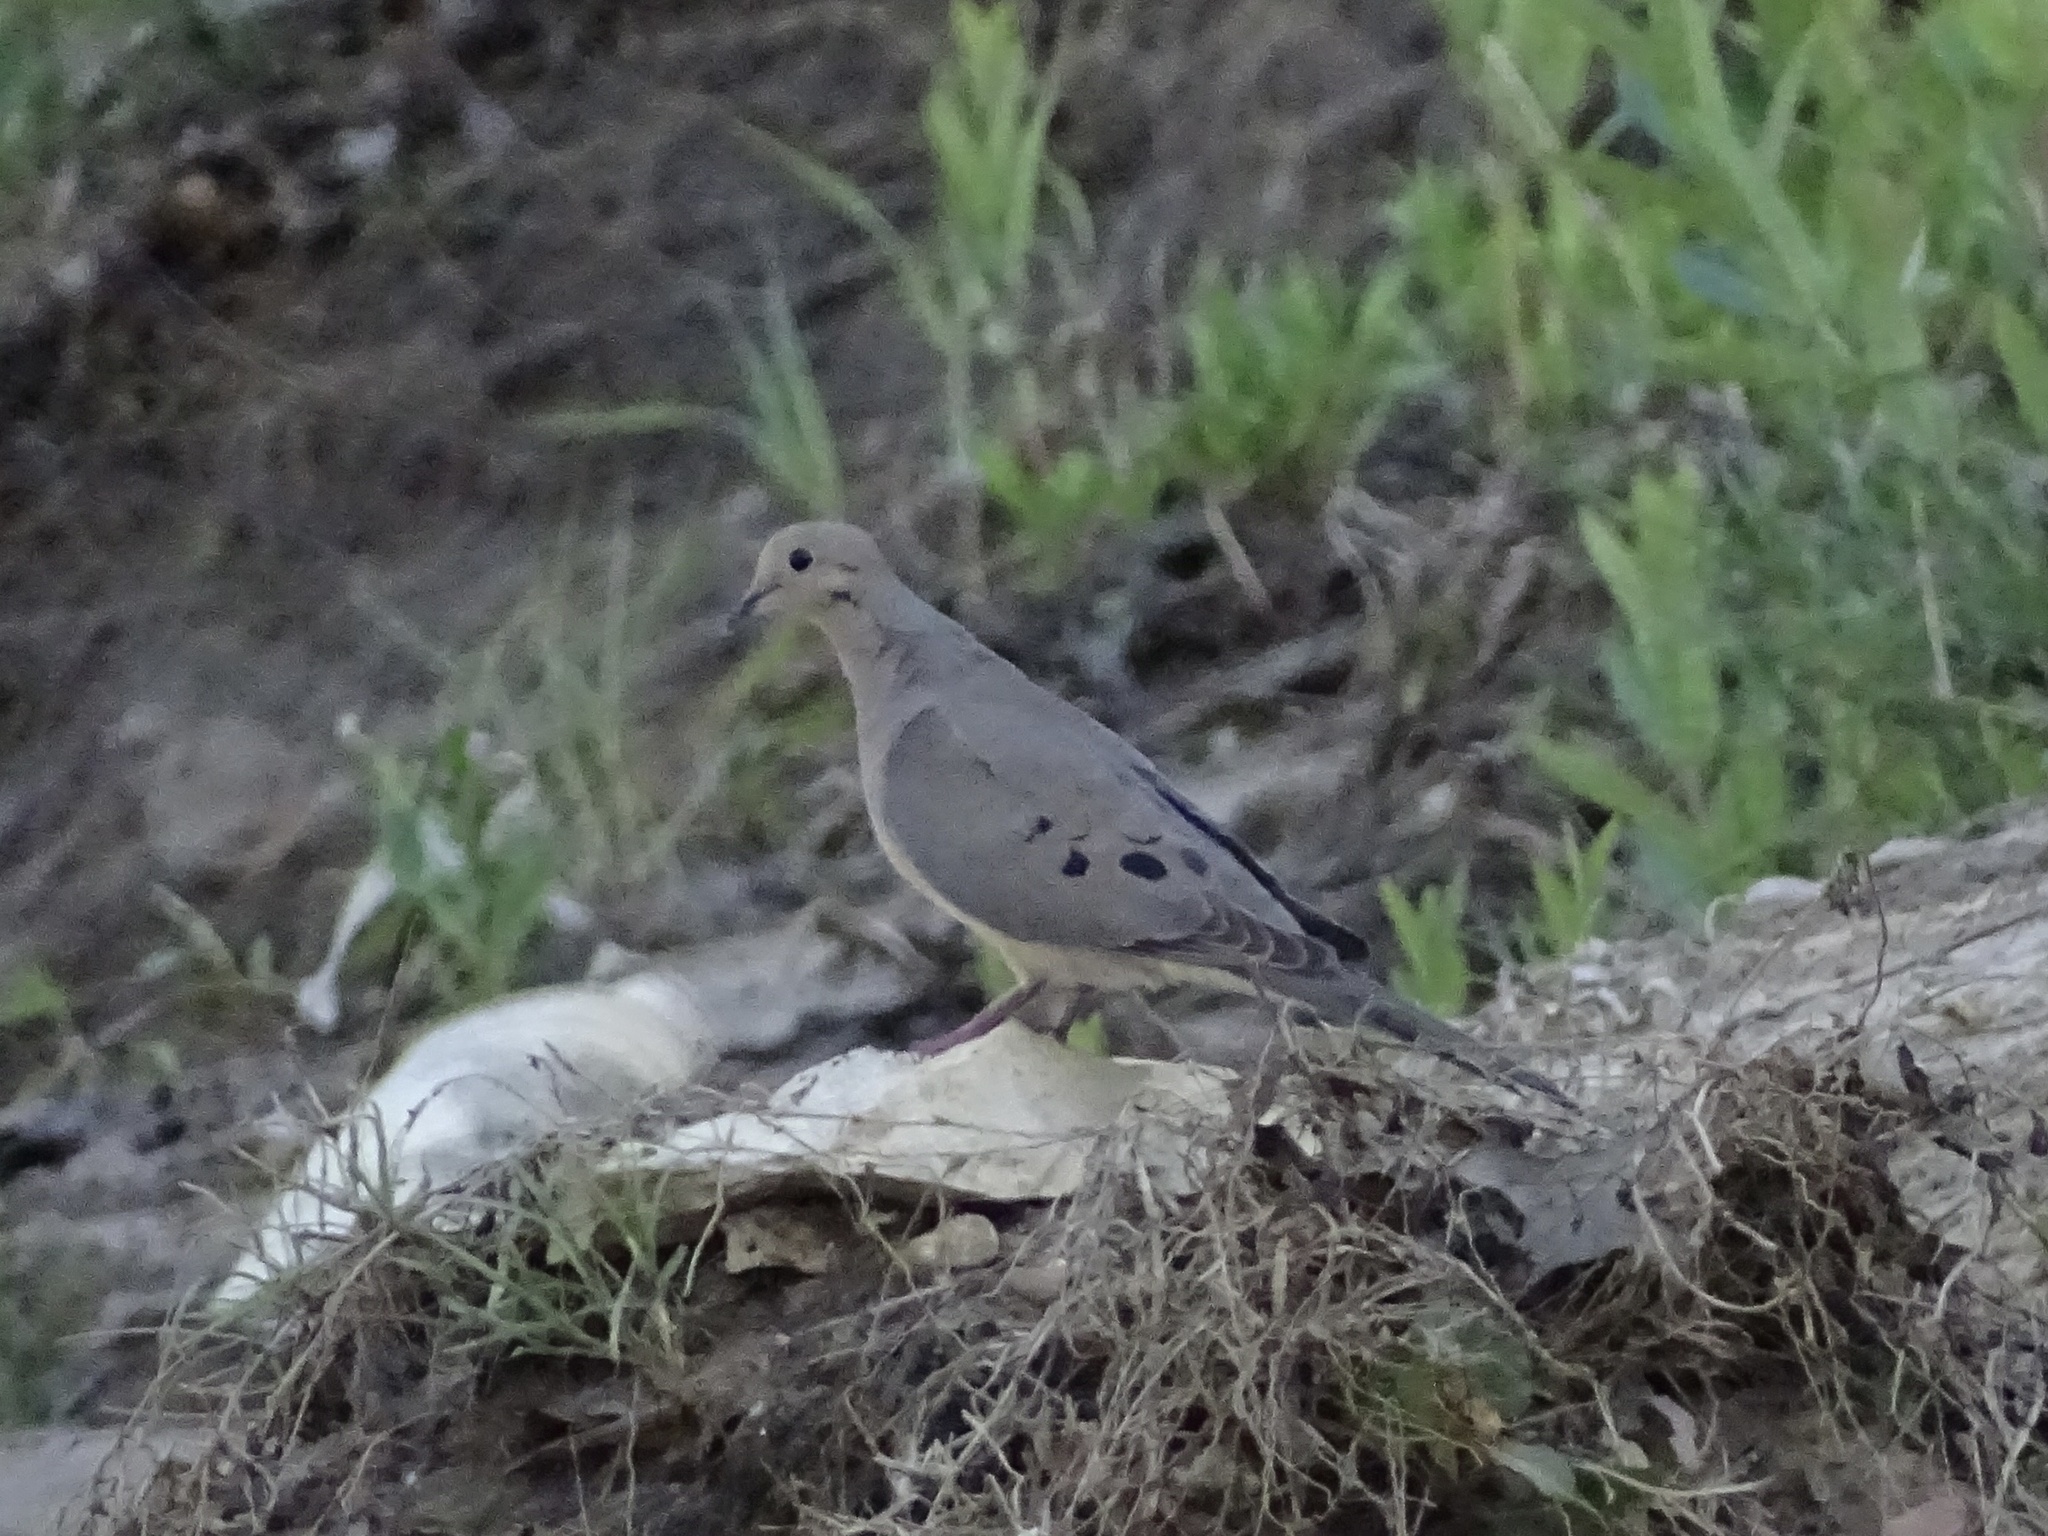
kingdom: Animalia
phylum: Chordata
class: Aves
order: Columbiformes
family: Columbidae
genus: Zenaida
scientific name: Zenaida macroura
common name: Mourning dove
